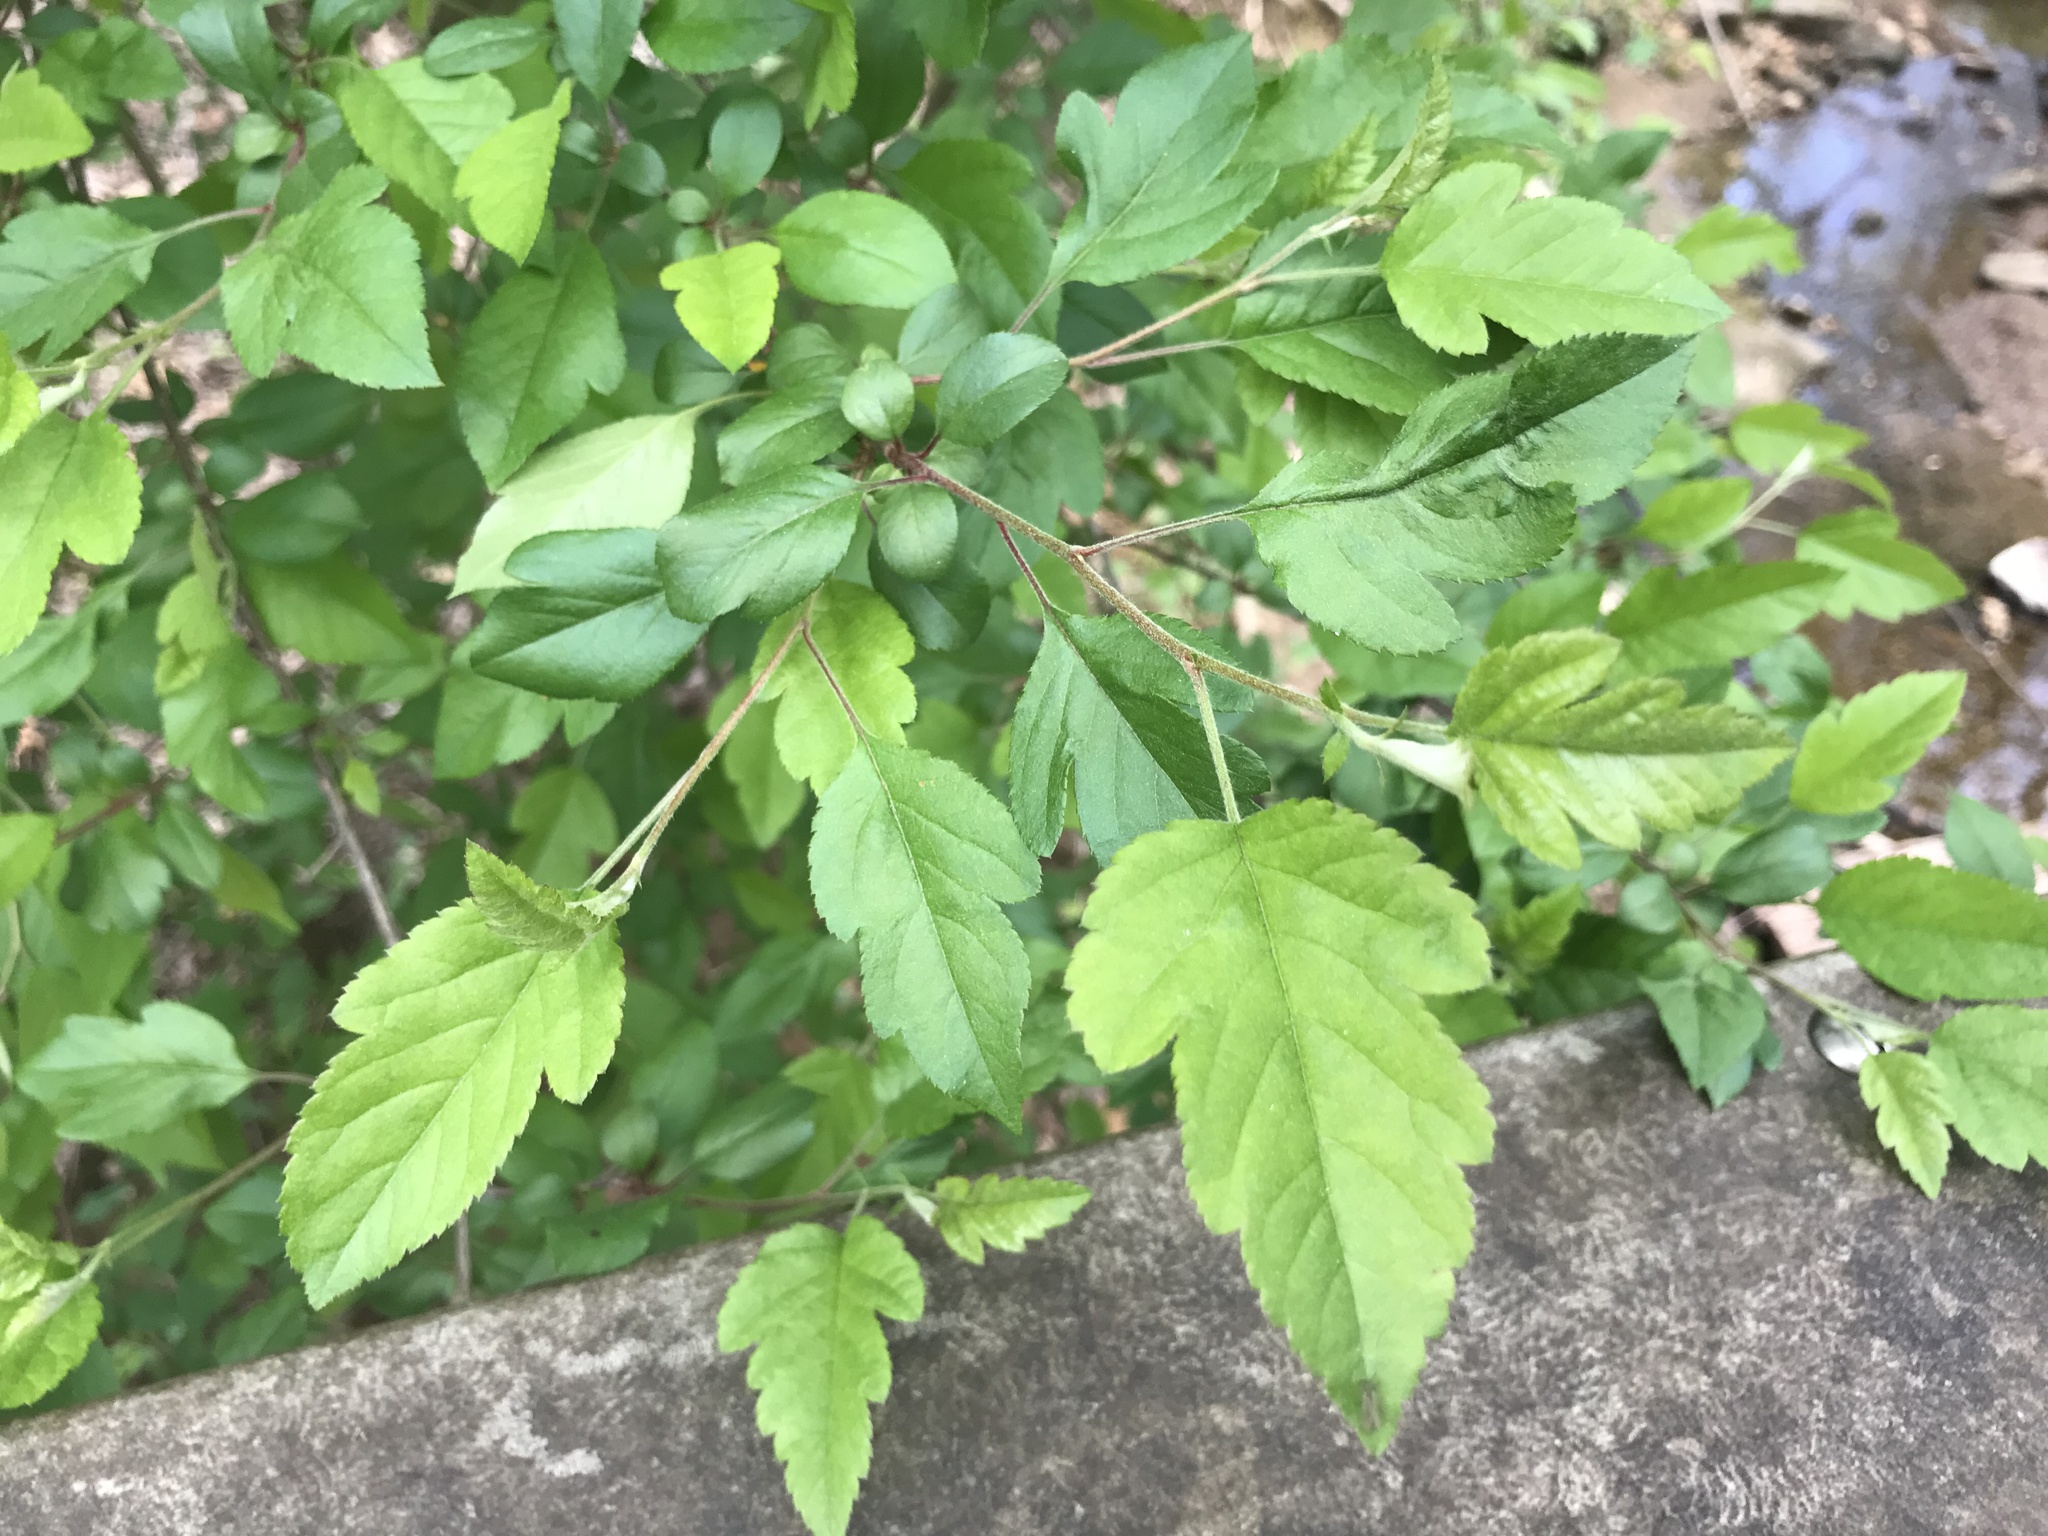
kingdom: Plantae
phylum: Tracheophyta
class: Magnoliopsida
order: Rosales
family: Rosaceae
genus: Malus
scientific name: Malus coronaria
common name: Sweet crab apple
